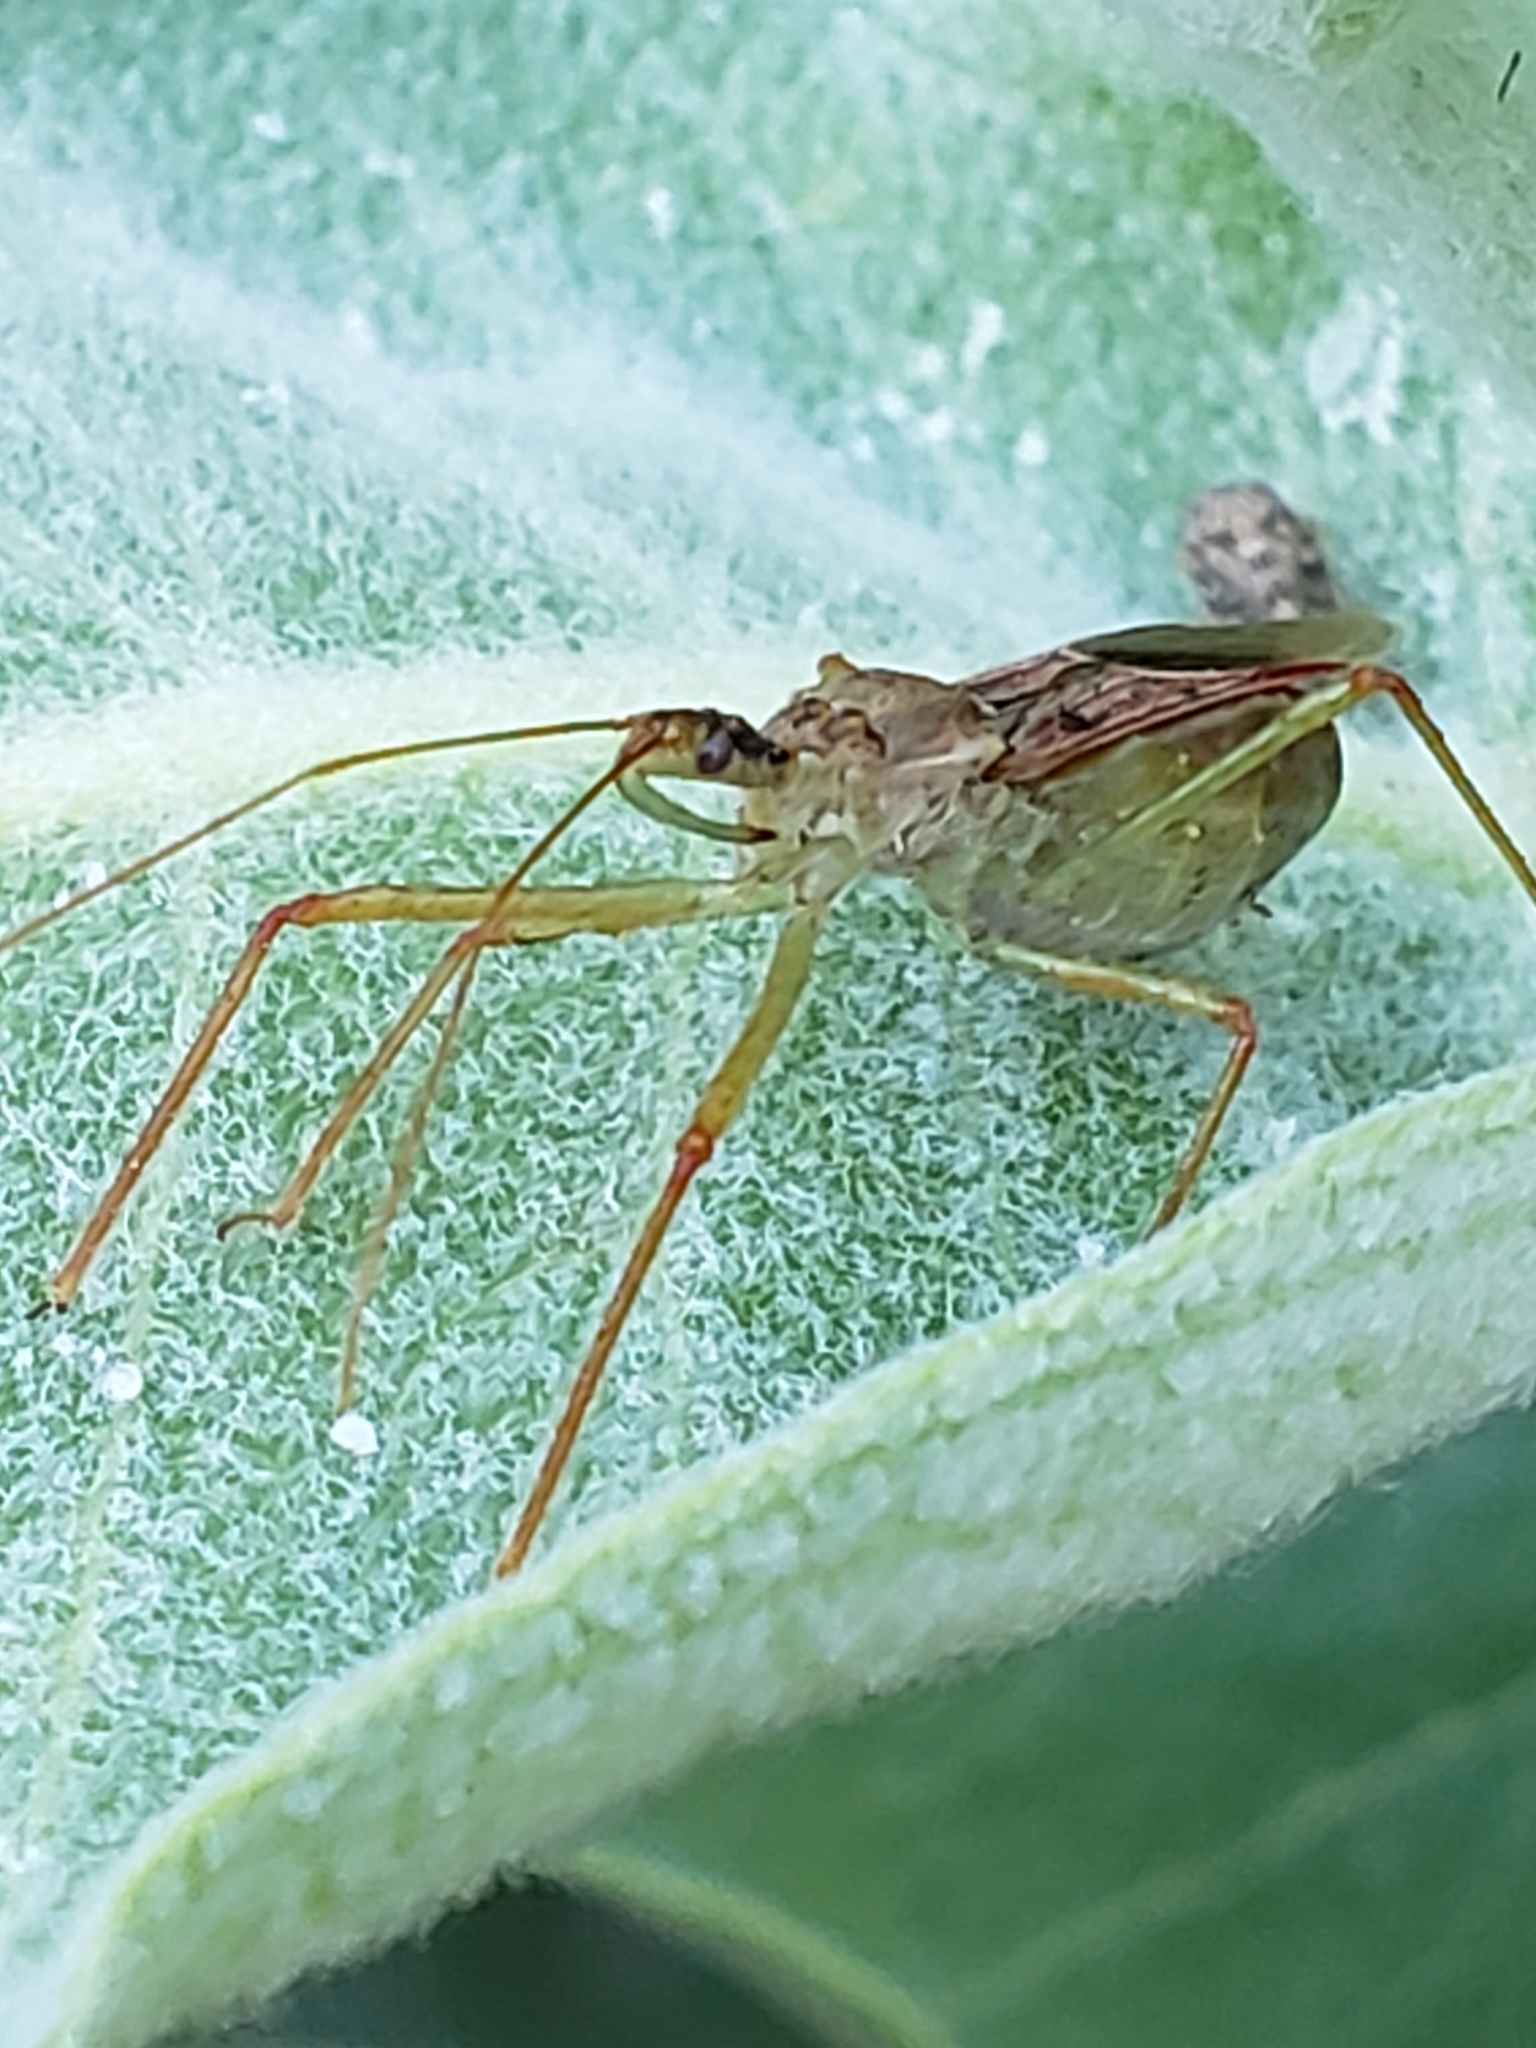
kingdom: Animalia
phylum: Arthropoda
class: Insecta
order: Hemiptera
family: Reduviidae
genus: Zelus
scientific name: Zelus renardii
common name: Assassin bug
